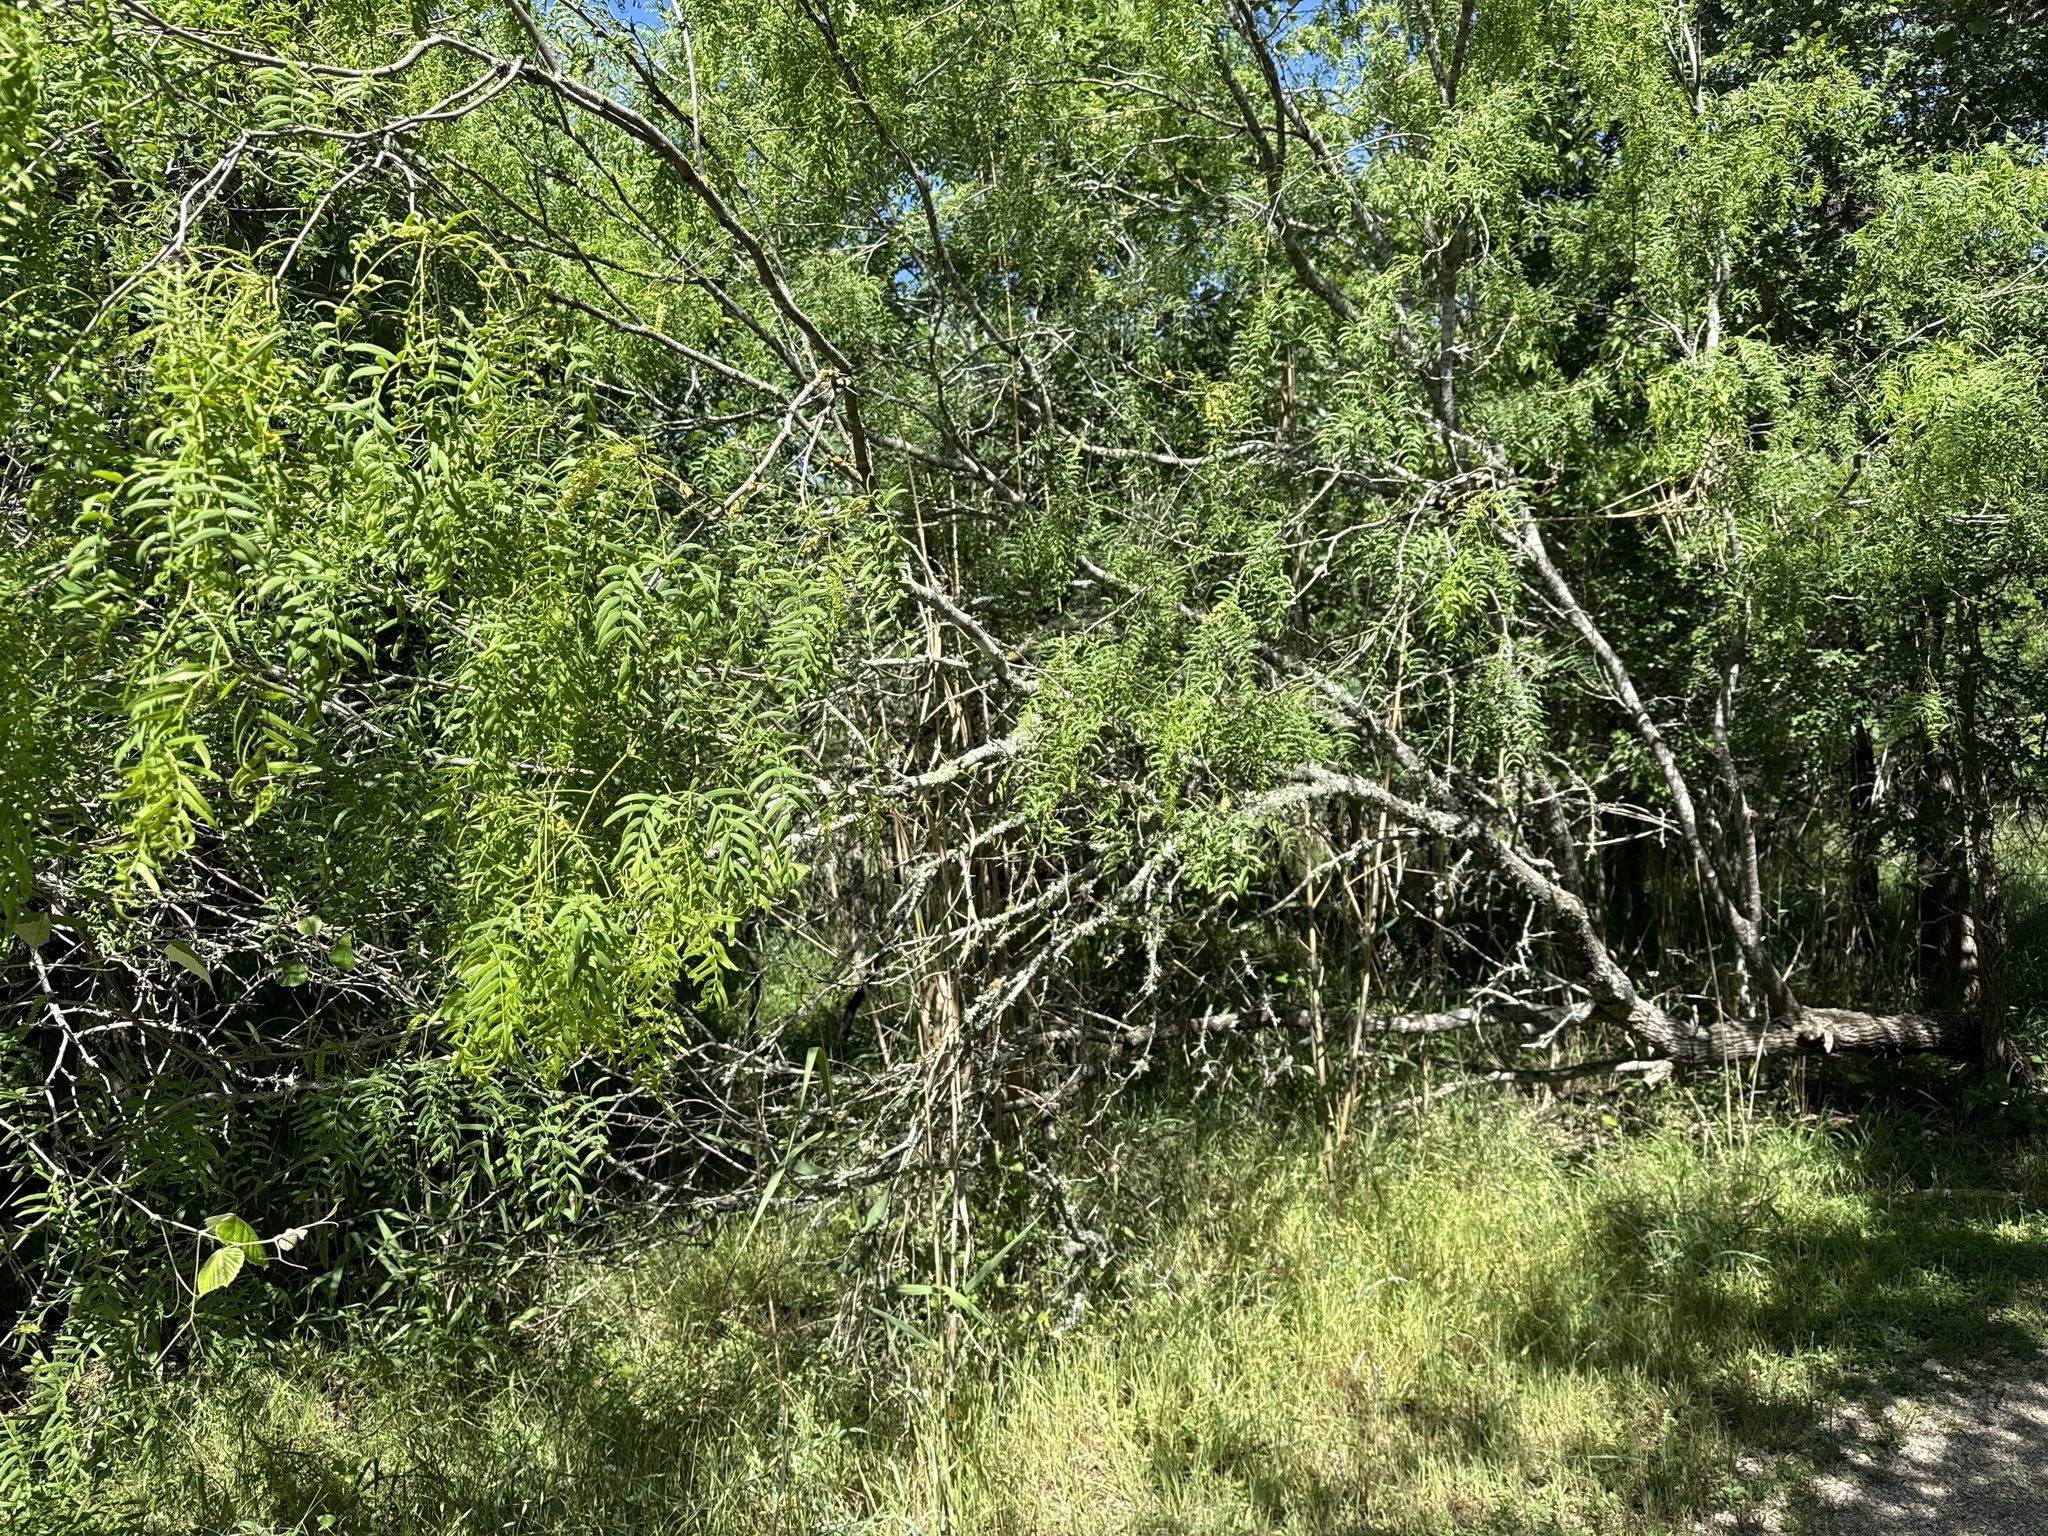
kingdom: Plantae
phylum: Tracheophyta
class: Magnoliopsida
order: Fabales
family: Fabaceae
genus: Prosopis
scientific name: Prosopis glandulosa
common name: Honey mesquite
